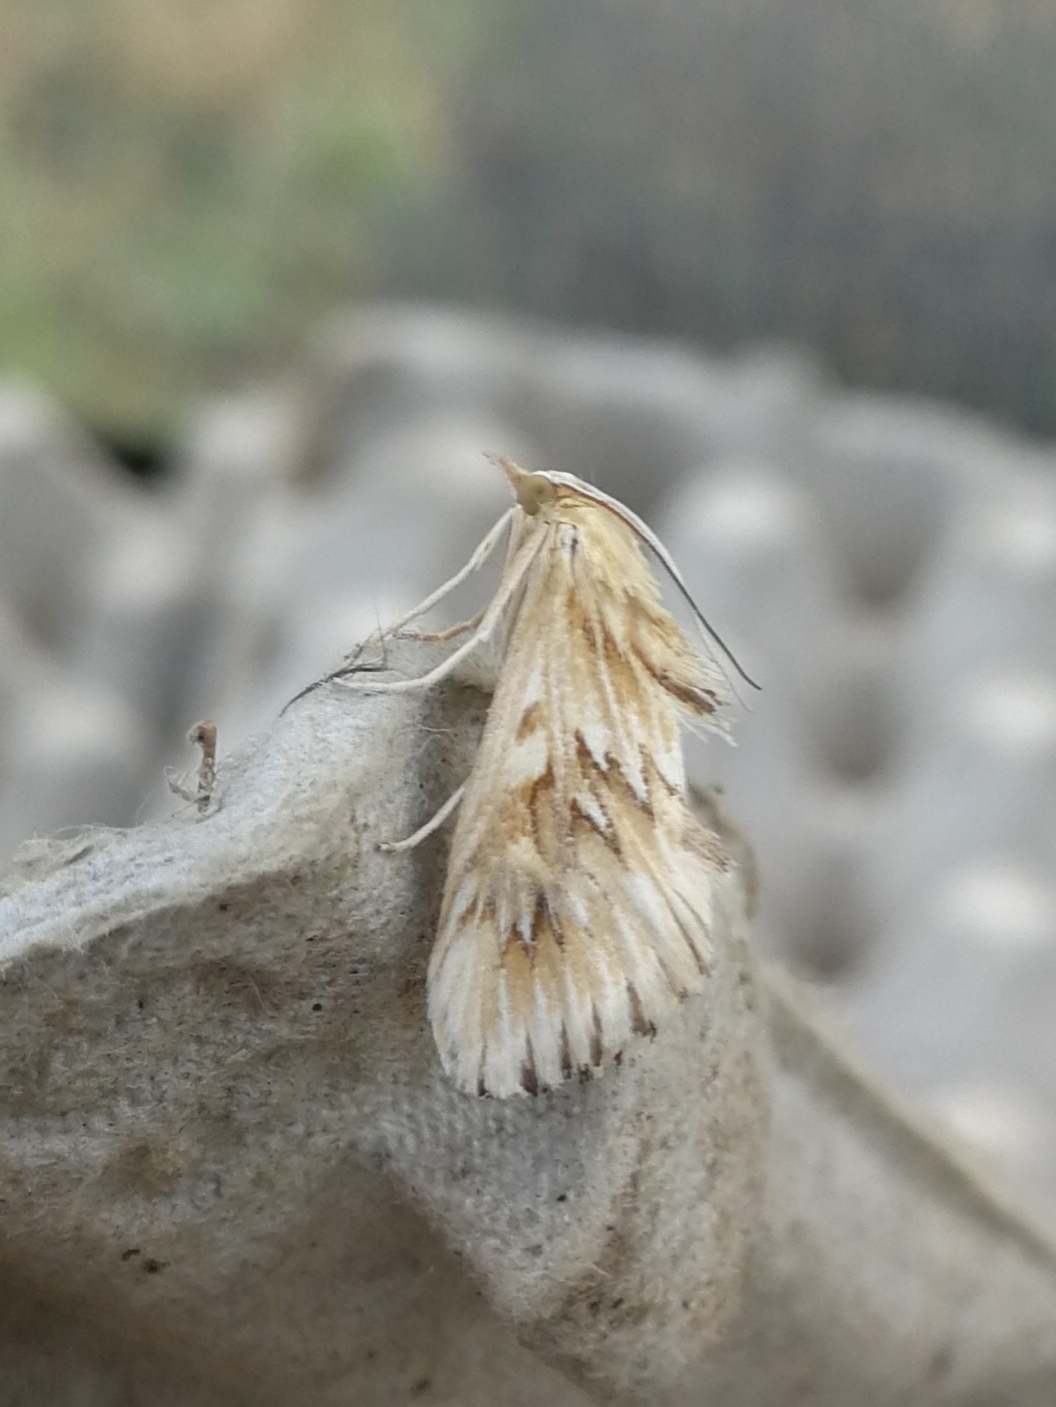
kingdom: Animalia
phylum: Arthropoda
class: Insecta
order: Lepidoptera
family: Crambidae
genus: Cynaeda
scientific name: Cynaeda dentalis
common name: Starry pearl
